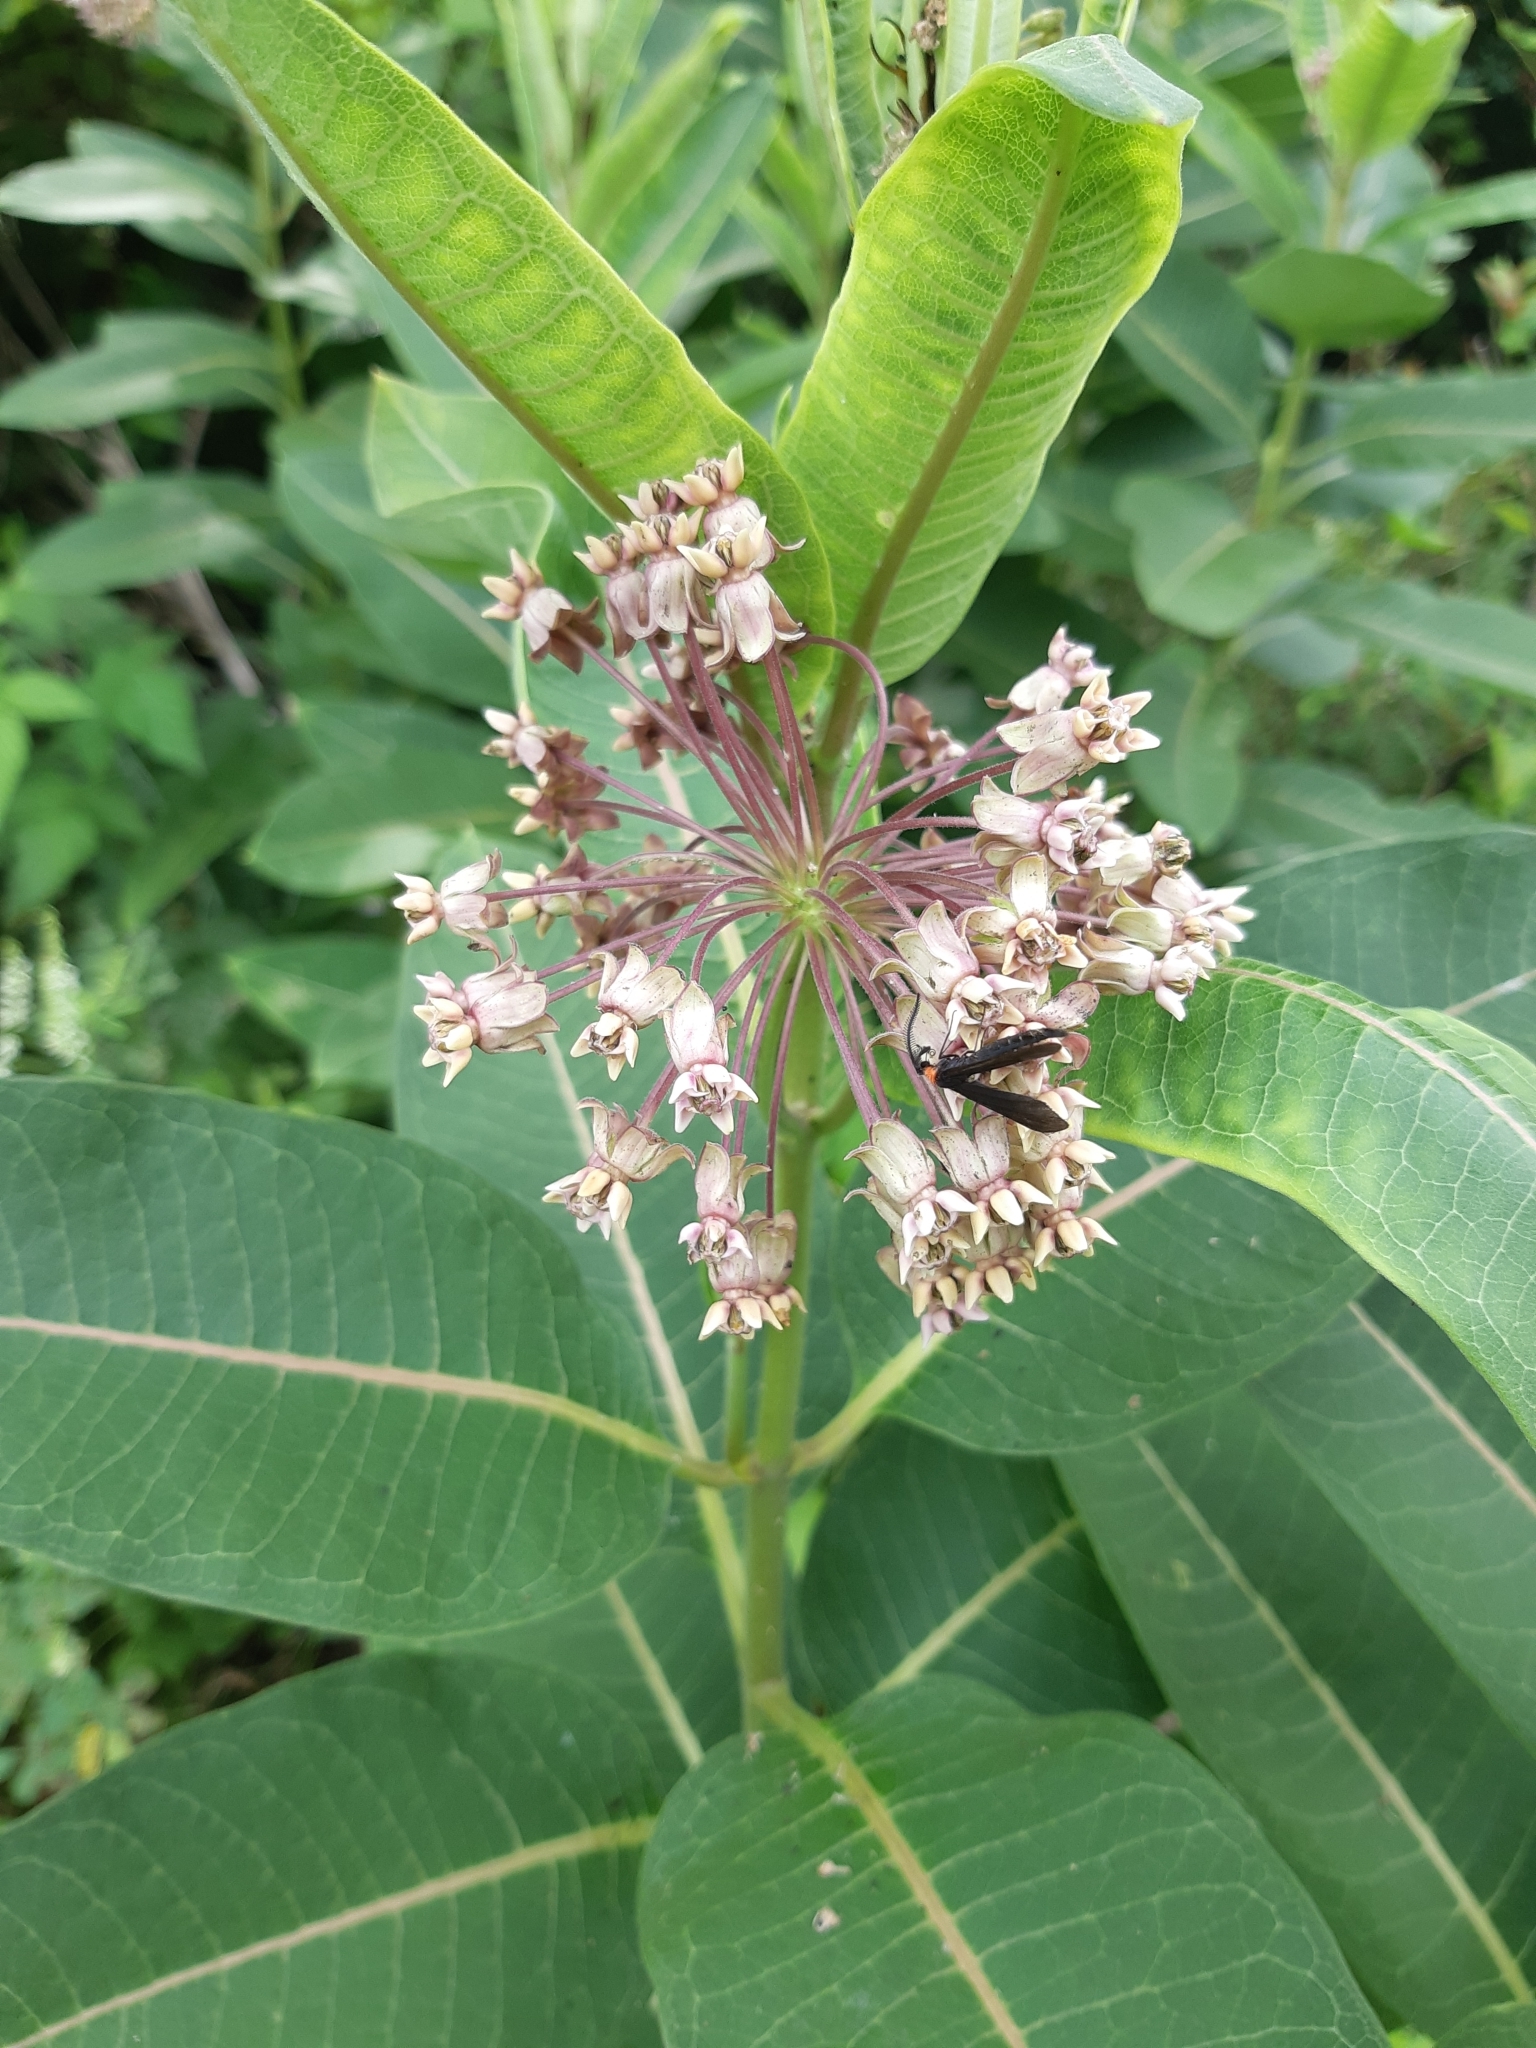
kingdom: Plantae
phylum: Tracheophyta
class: Magnoliopsida
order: Gentianales
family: Apocynaceae
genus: Asclepias
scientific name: Asclepias syriaca
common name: Common milkweed
